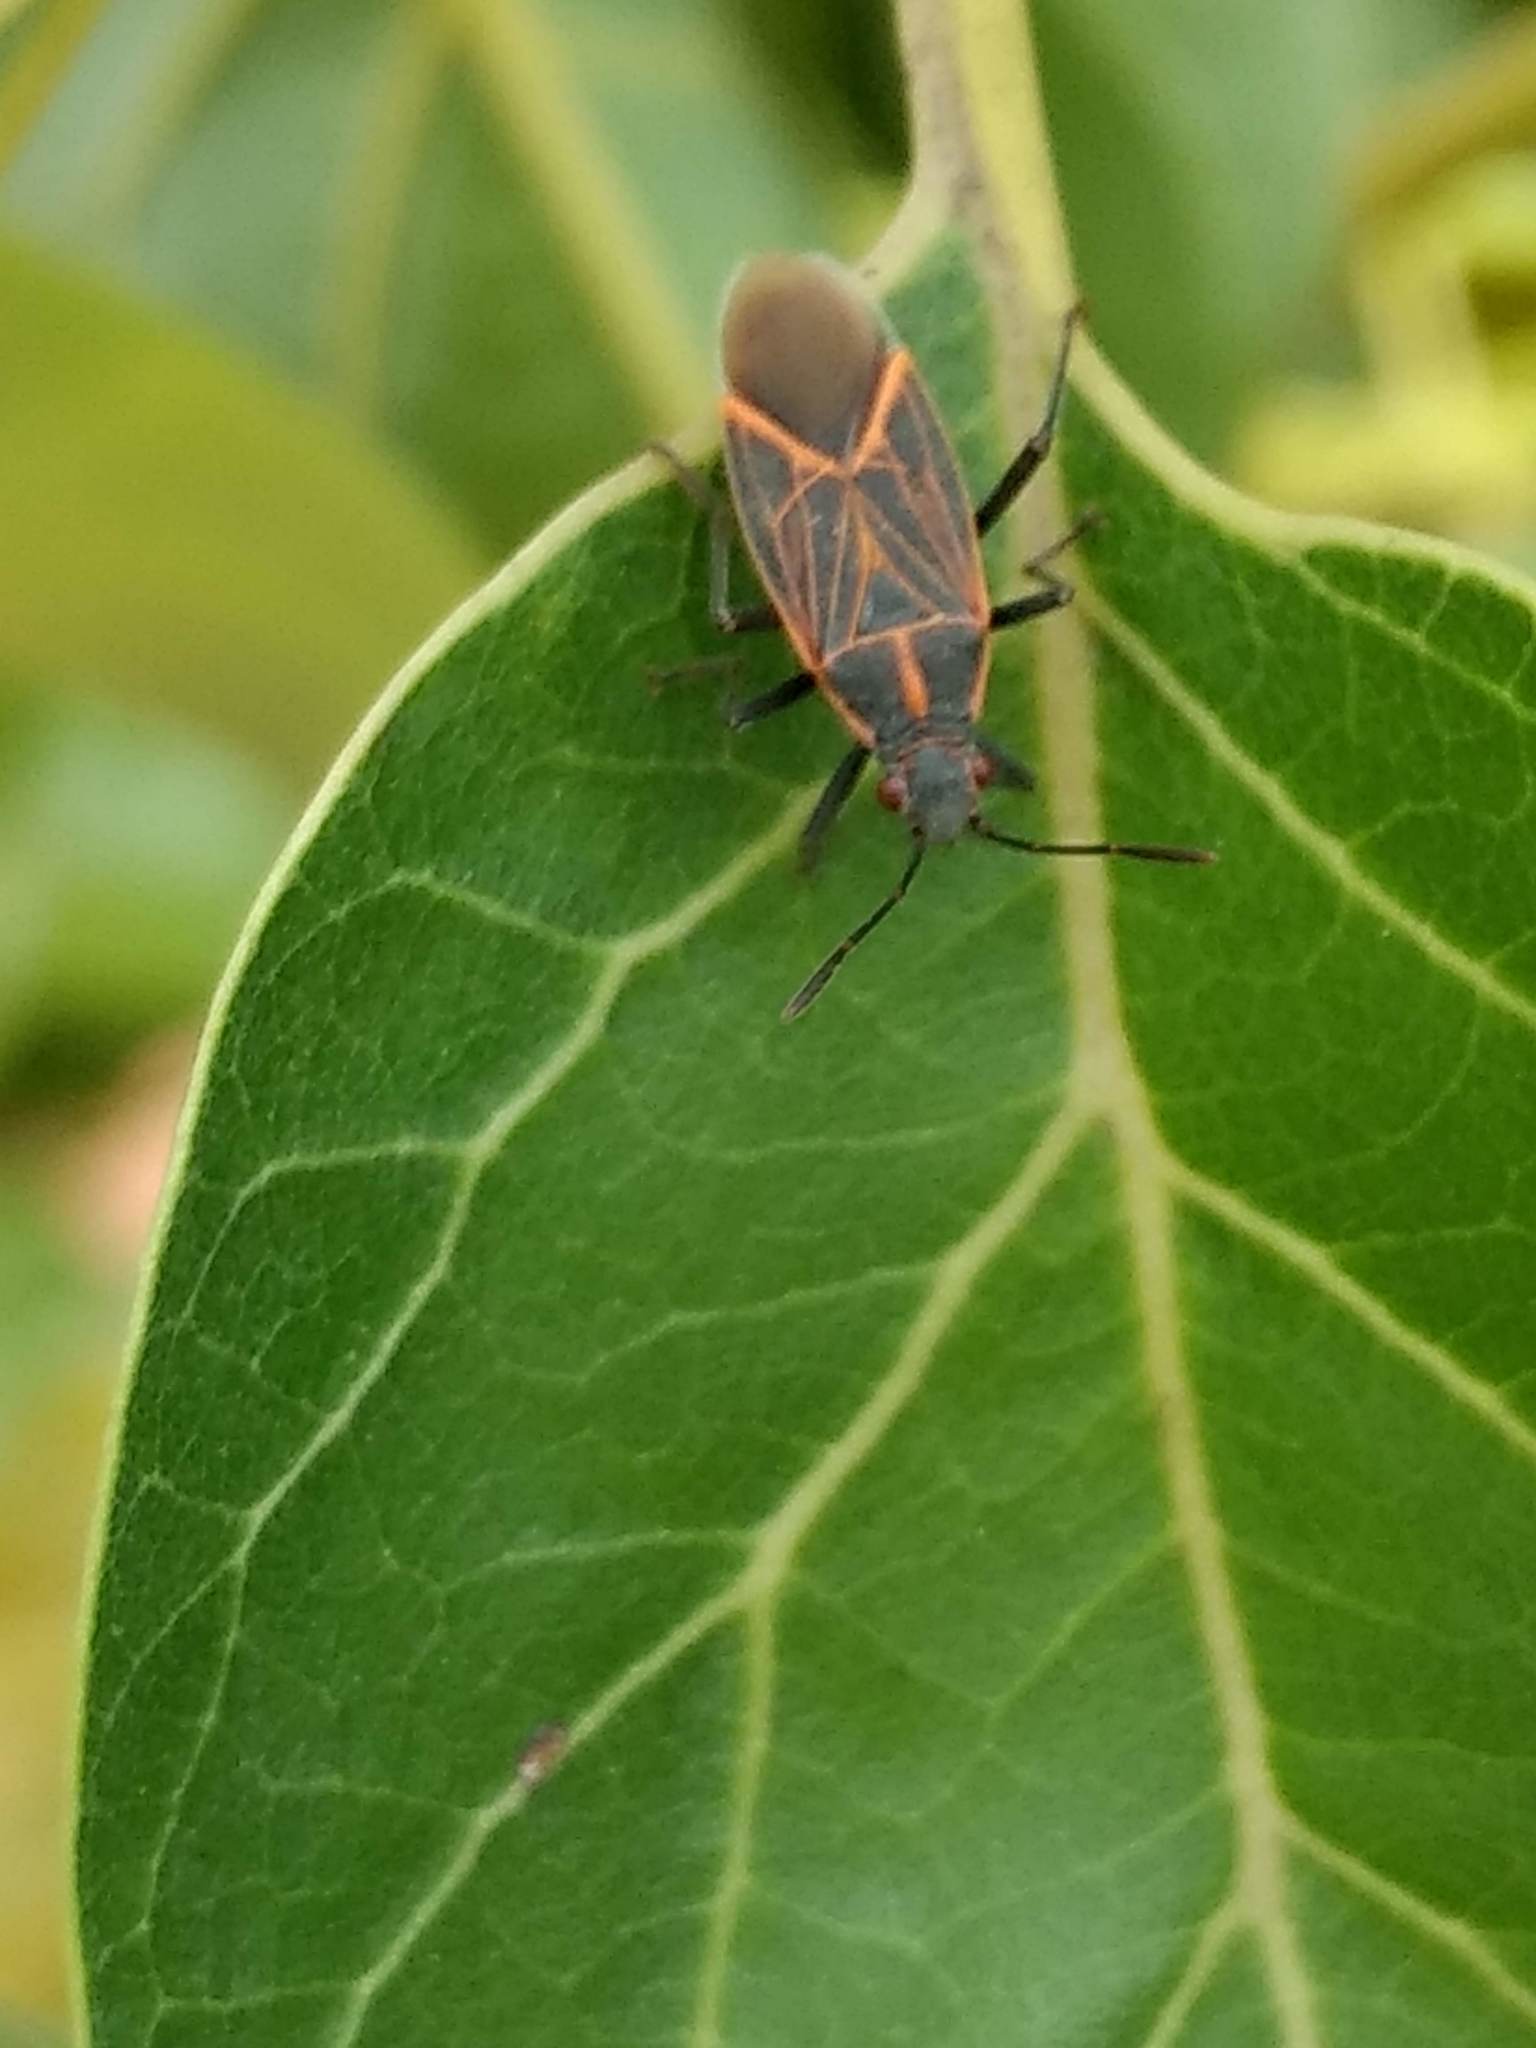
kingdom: Animalia
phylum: Arthropoda
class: Insecta
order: Hemiptera
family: Rhopalidae
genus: Boisea
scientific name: Boisea rubrolineata
